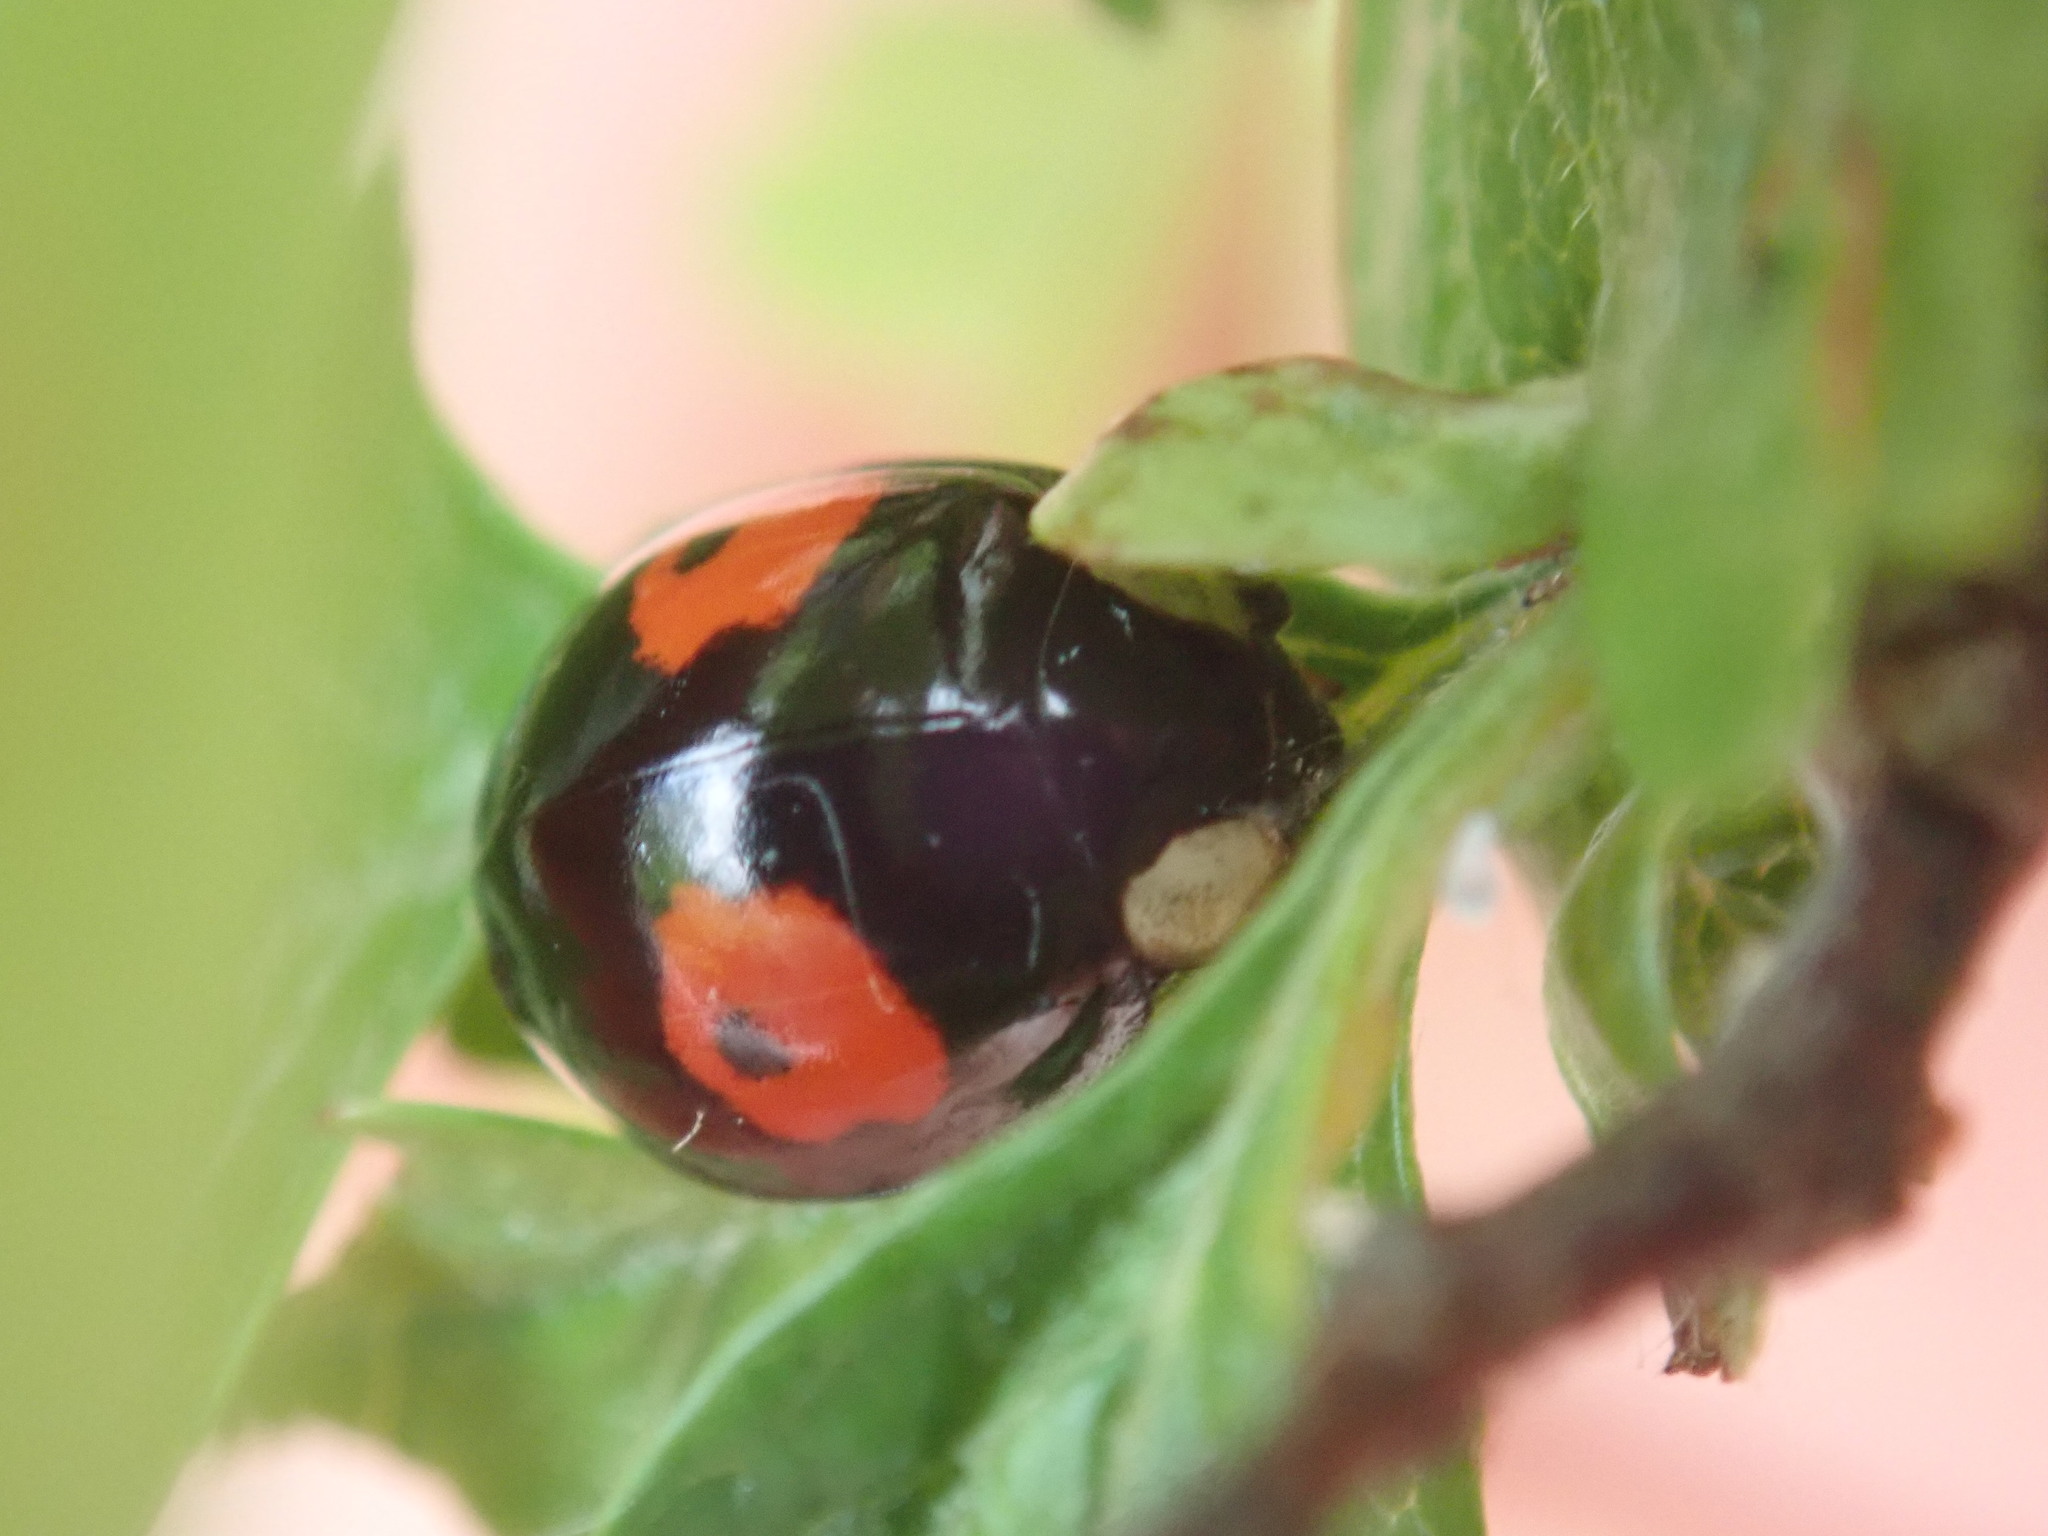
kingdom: Animalia
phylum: Arthropoda
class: Insecta
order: Coleoptera
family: Coccinellidae
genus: Harmonia
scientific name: Harmonia axyridis
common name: Harlequin ladybird
